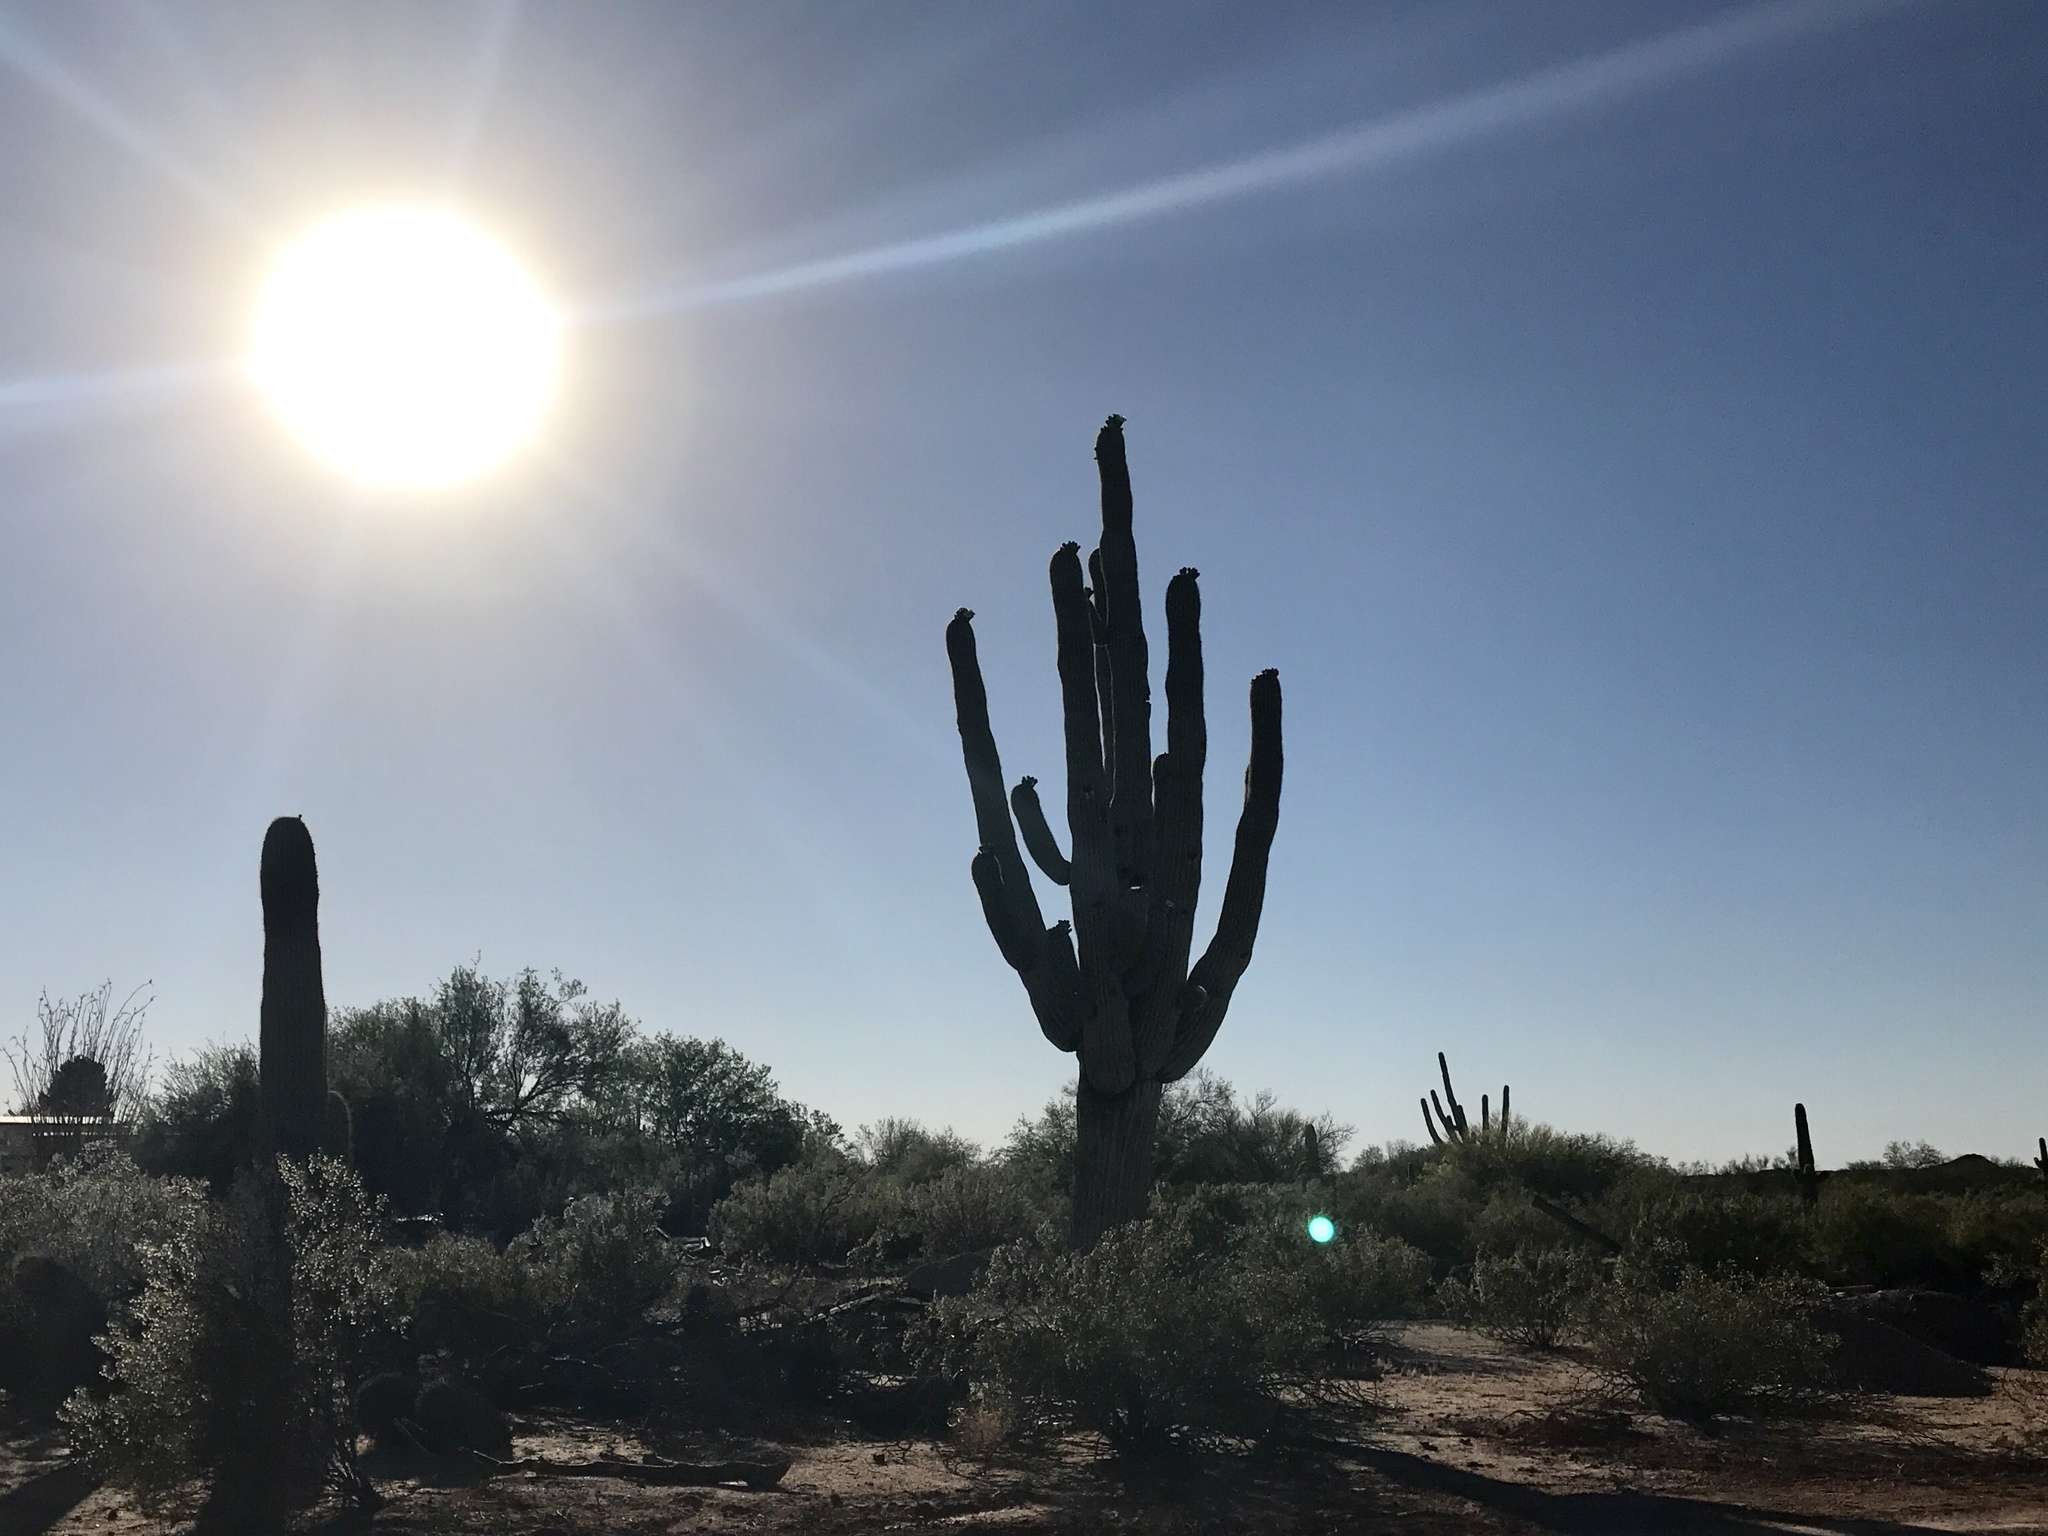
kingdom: Plantae
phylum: Tracheophyta
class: Magnoliopsida
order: Caryophyllales
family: Cactaceae
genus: Carnegiea
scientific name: Carnegiea gigantea
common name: Saguaro
